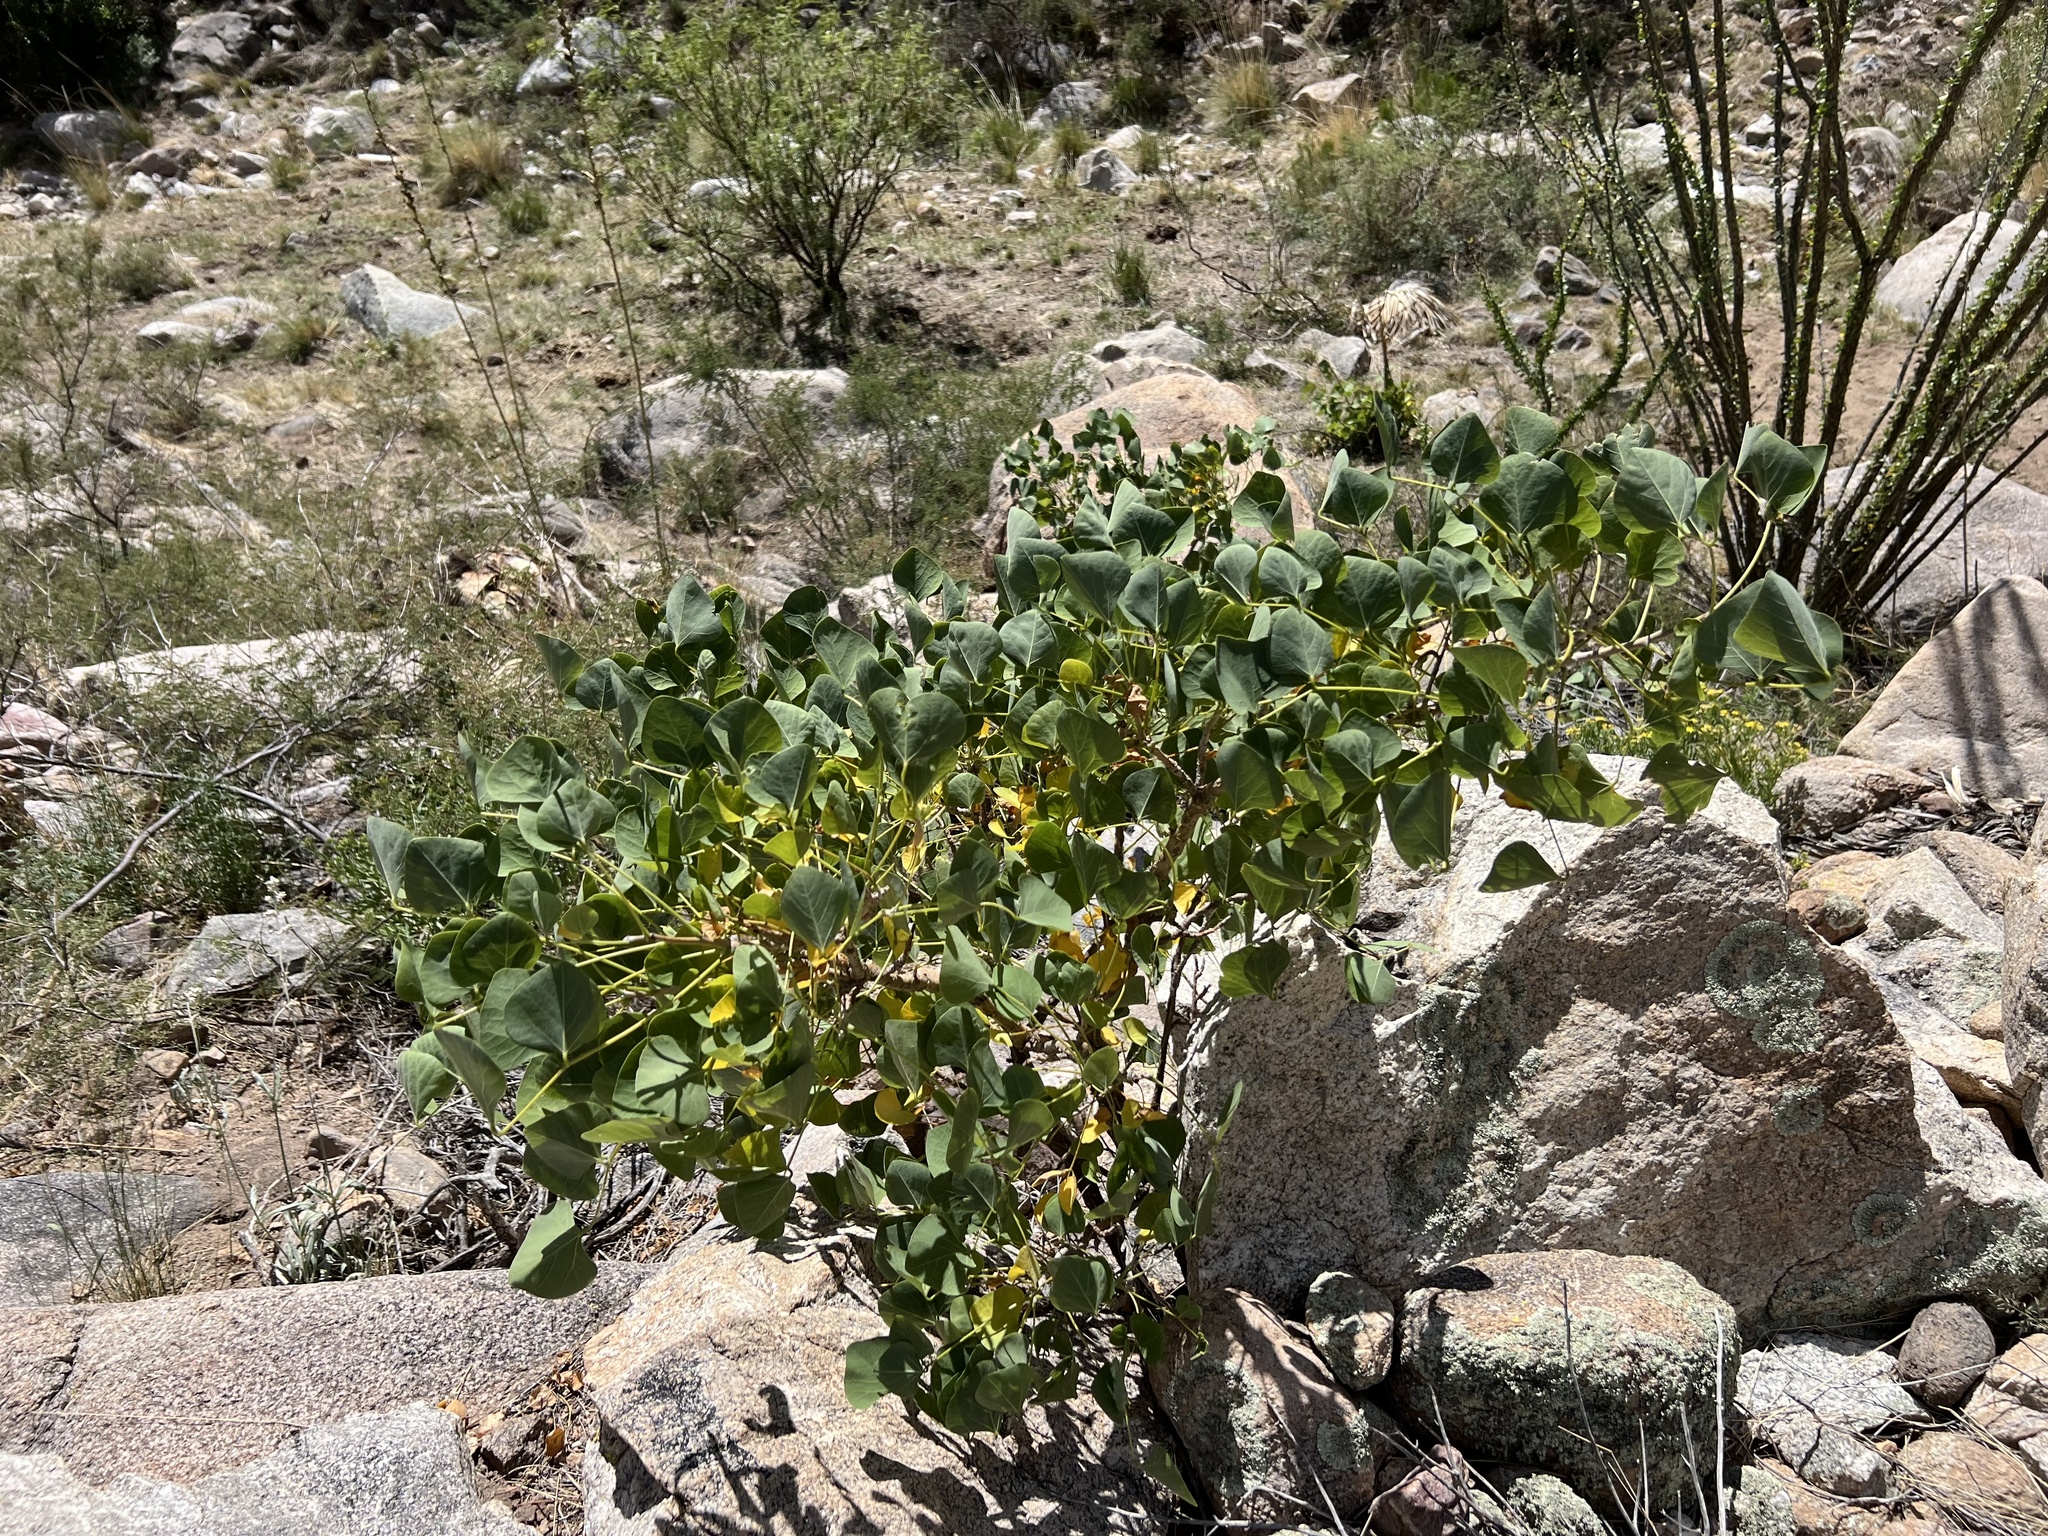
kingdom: Plantae
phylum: Tracheophyta
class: Magnoliopsida
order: Fabales
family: Fabaceae
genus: Erythrina
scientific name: Erythrina flabelliformis
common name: Chilicote
